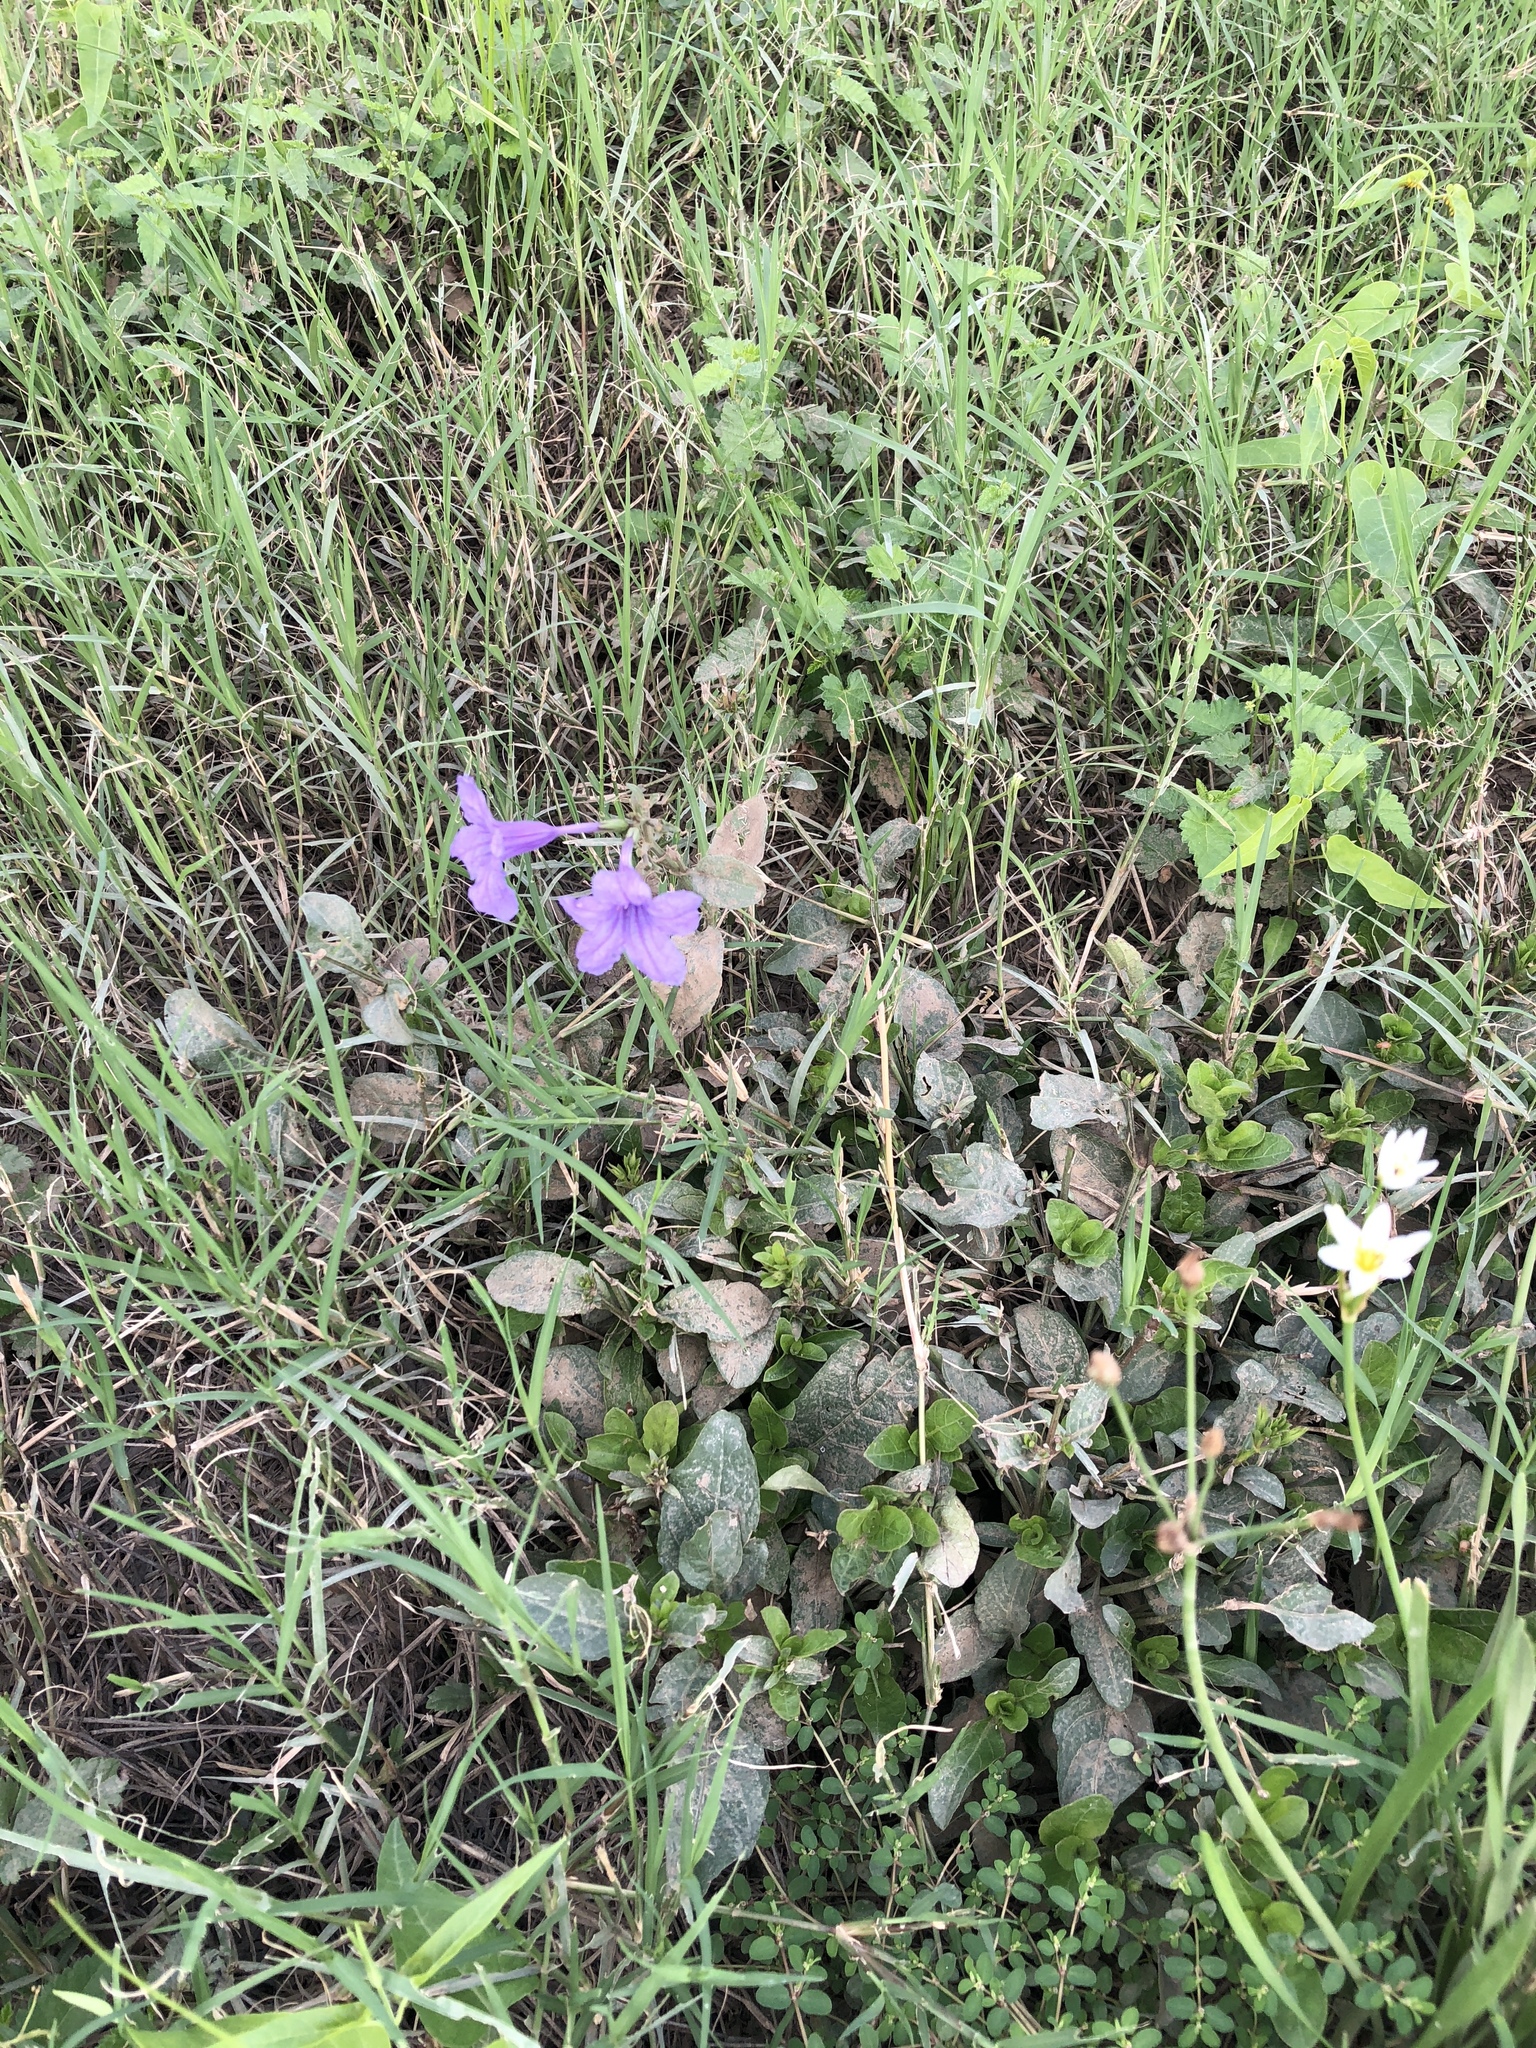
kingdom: Plantae
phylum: Tracheophyta
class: Magnoliopsida
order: Lamiales
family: Acanthaceae
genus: Ruellia
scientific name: Ruellia ciliatiflora
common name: Hairyflower wild petunia
